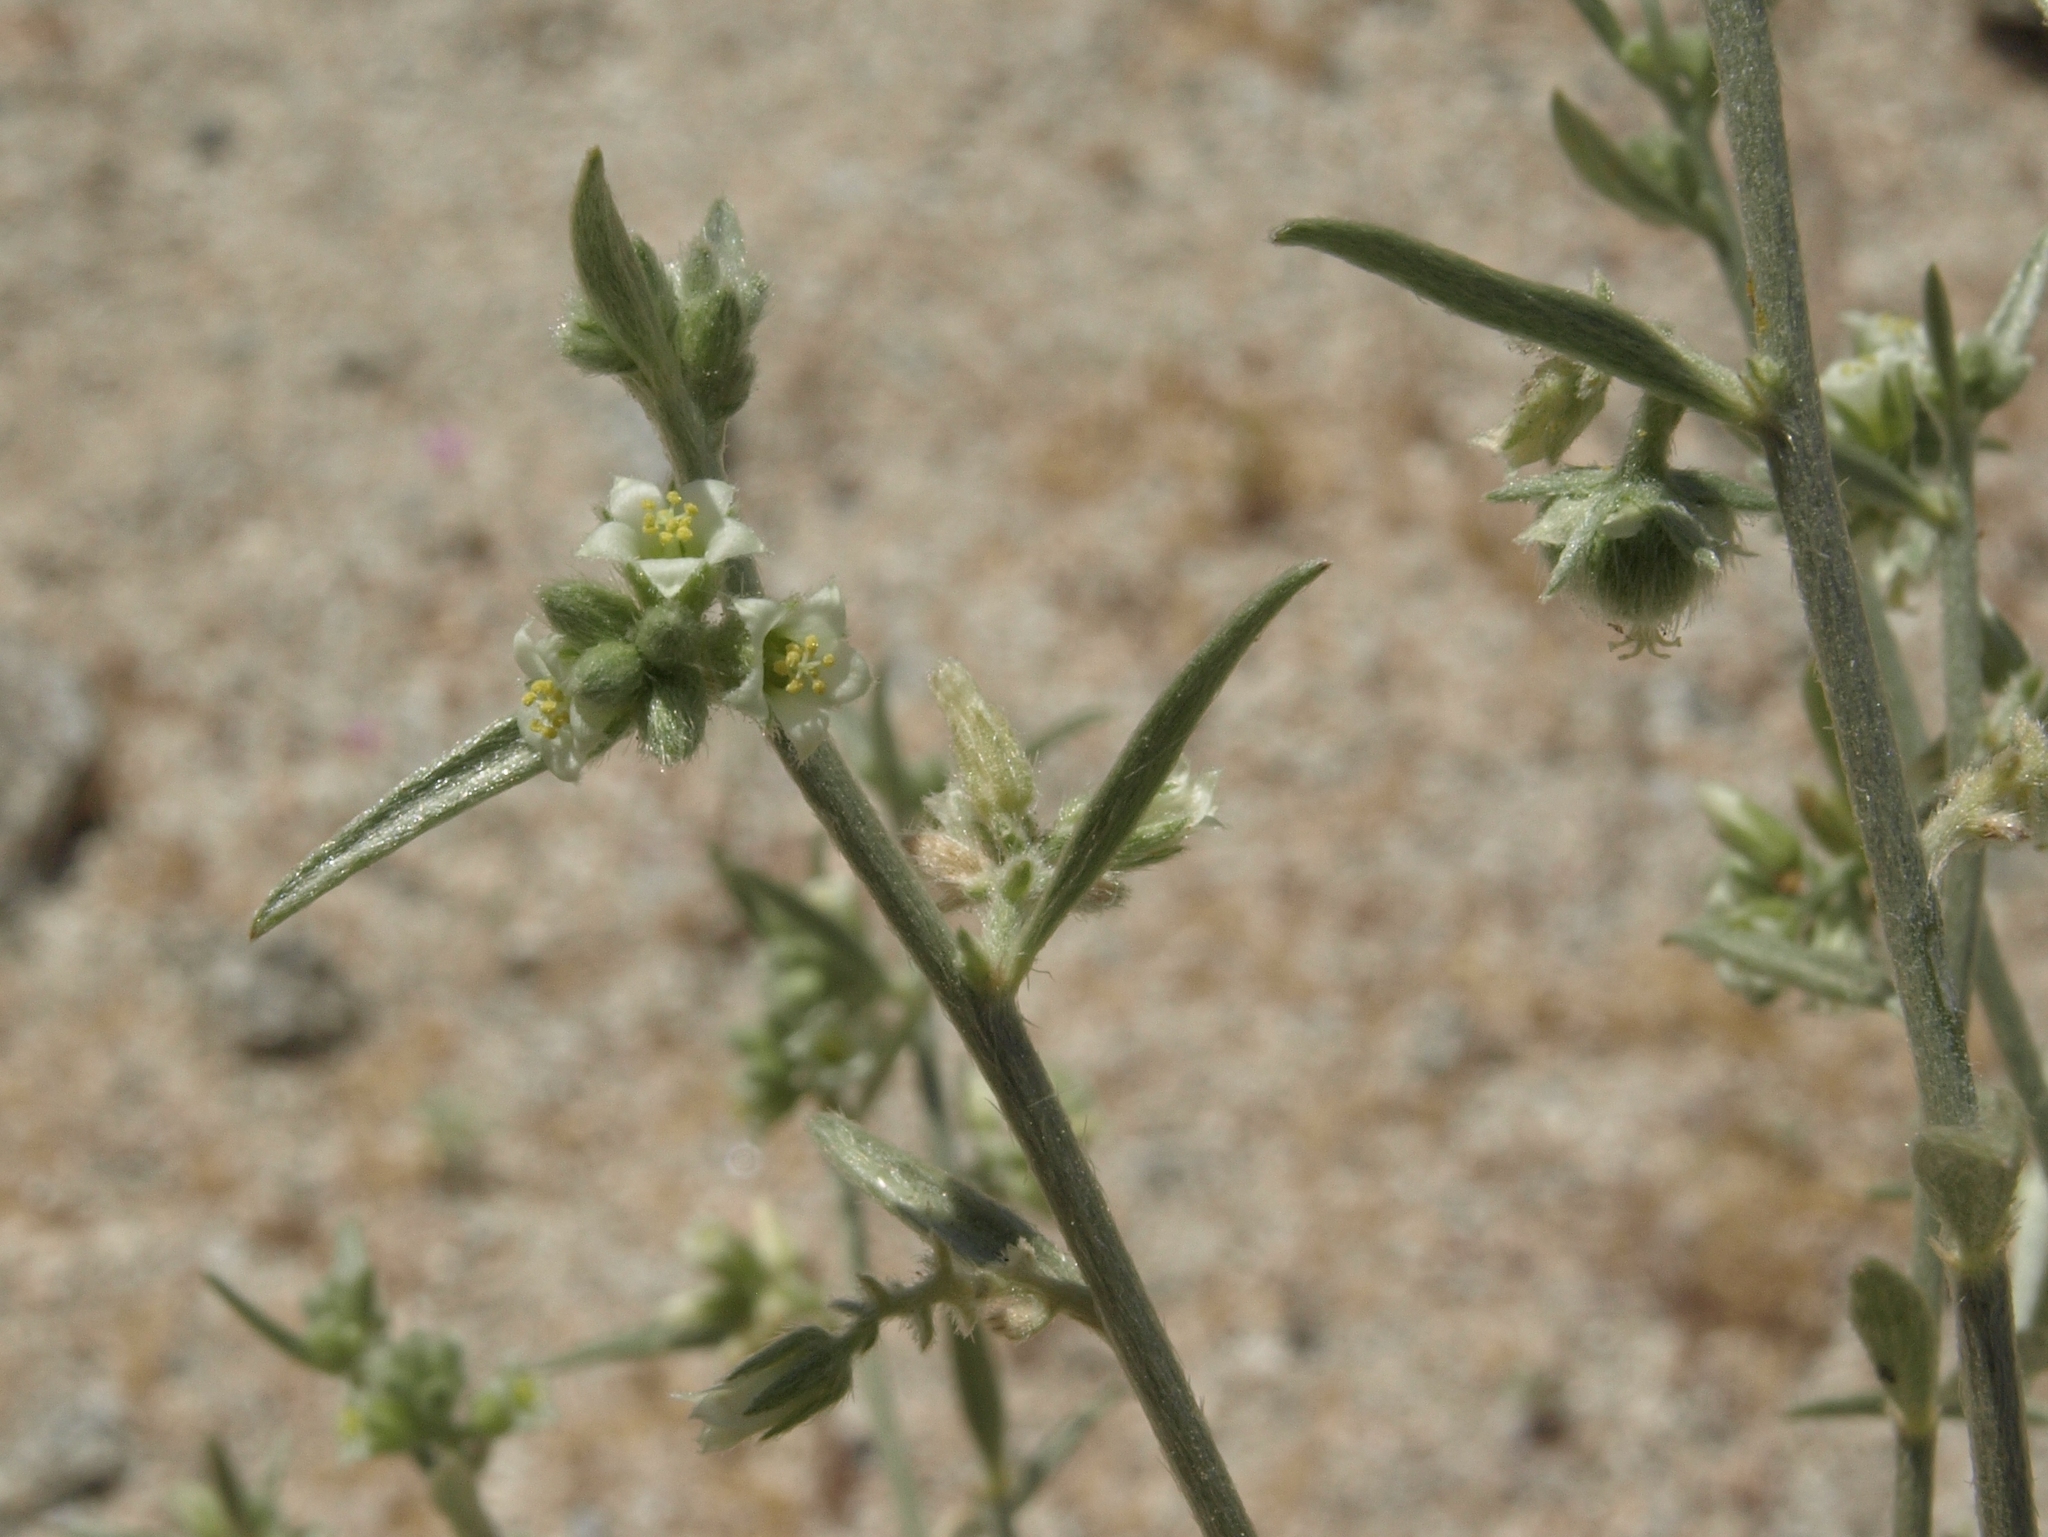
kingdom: Plantae
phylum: Tracheophyta
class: Magnoliopsida
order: Malpighiales
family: Euphorbiaceae
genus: Ditaxis
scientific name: Ditaxis lanceolata
